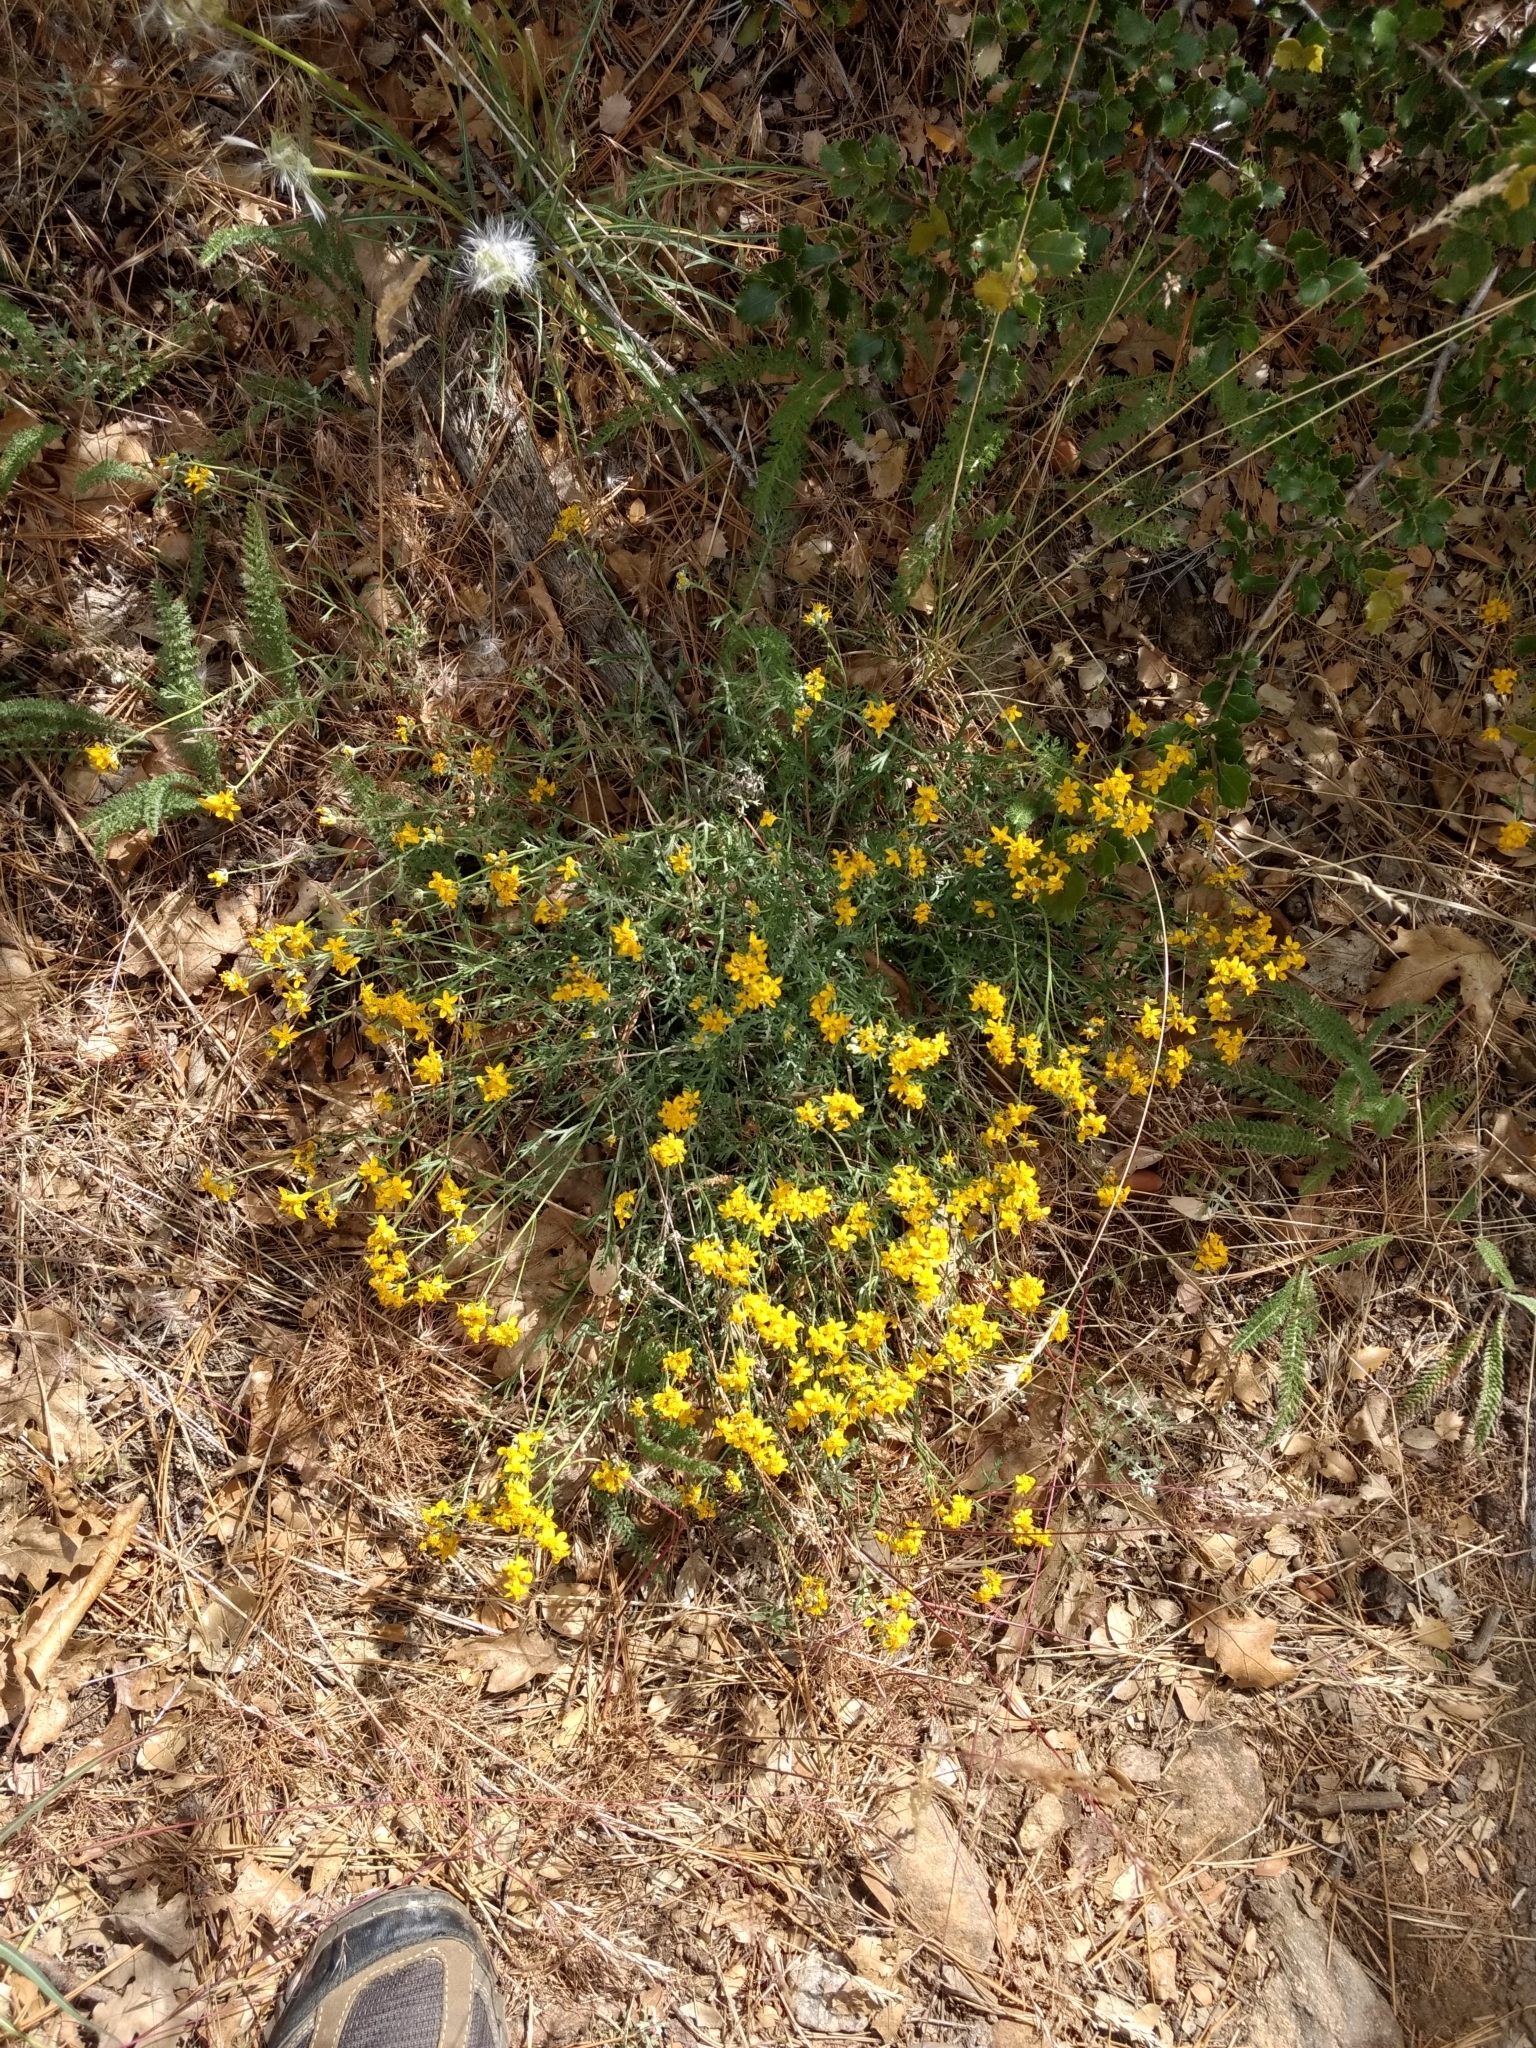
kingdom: Plantae
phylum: Tracheophyta
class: Magnoliopsida
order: Asterales
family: Asteraceae
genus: Eriophyllum
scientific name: Eriophyllum confertiflorum
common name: Golden-yarrow
